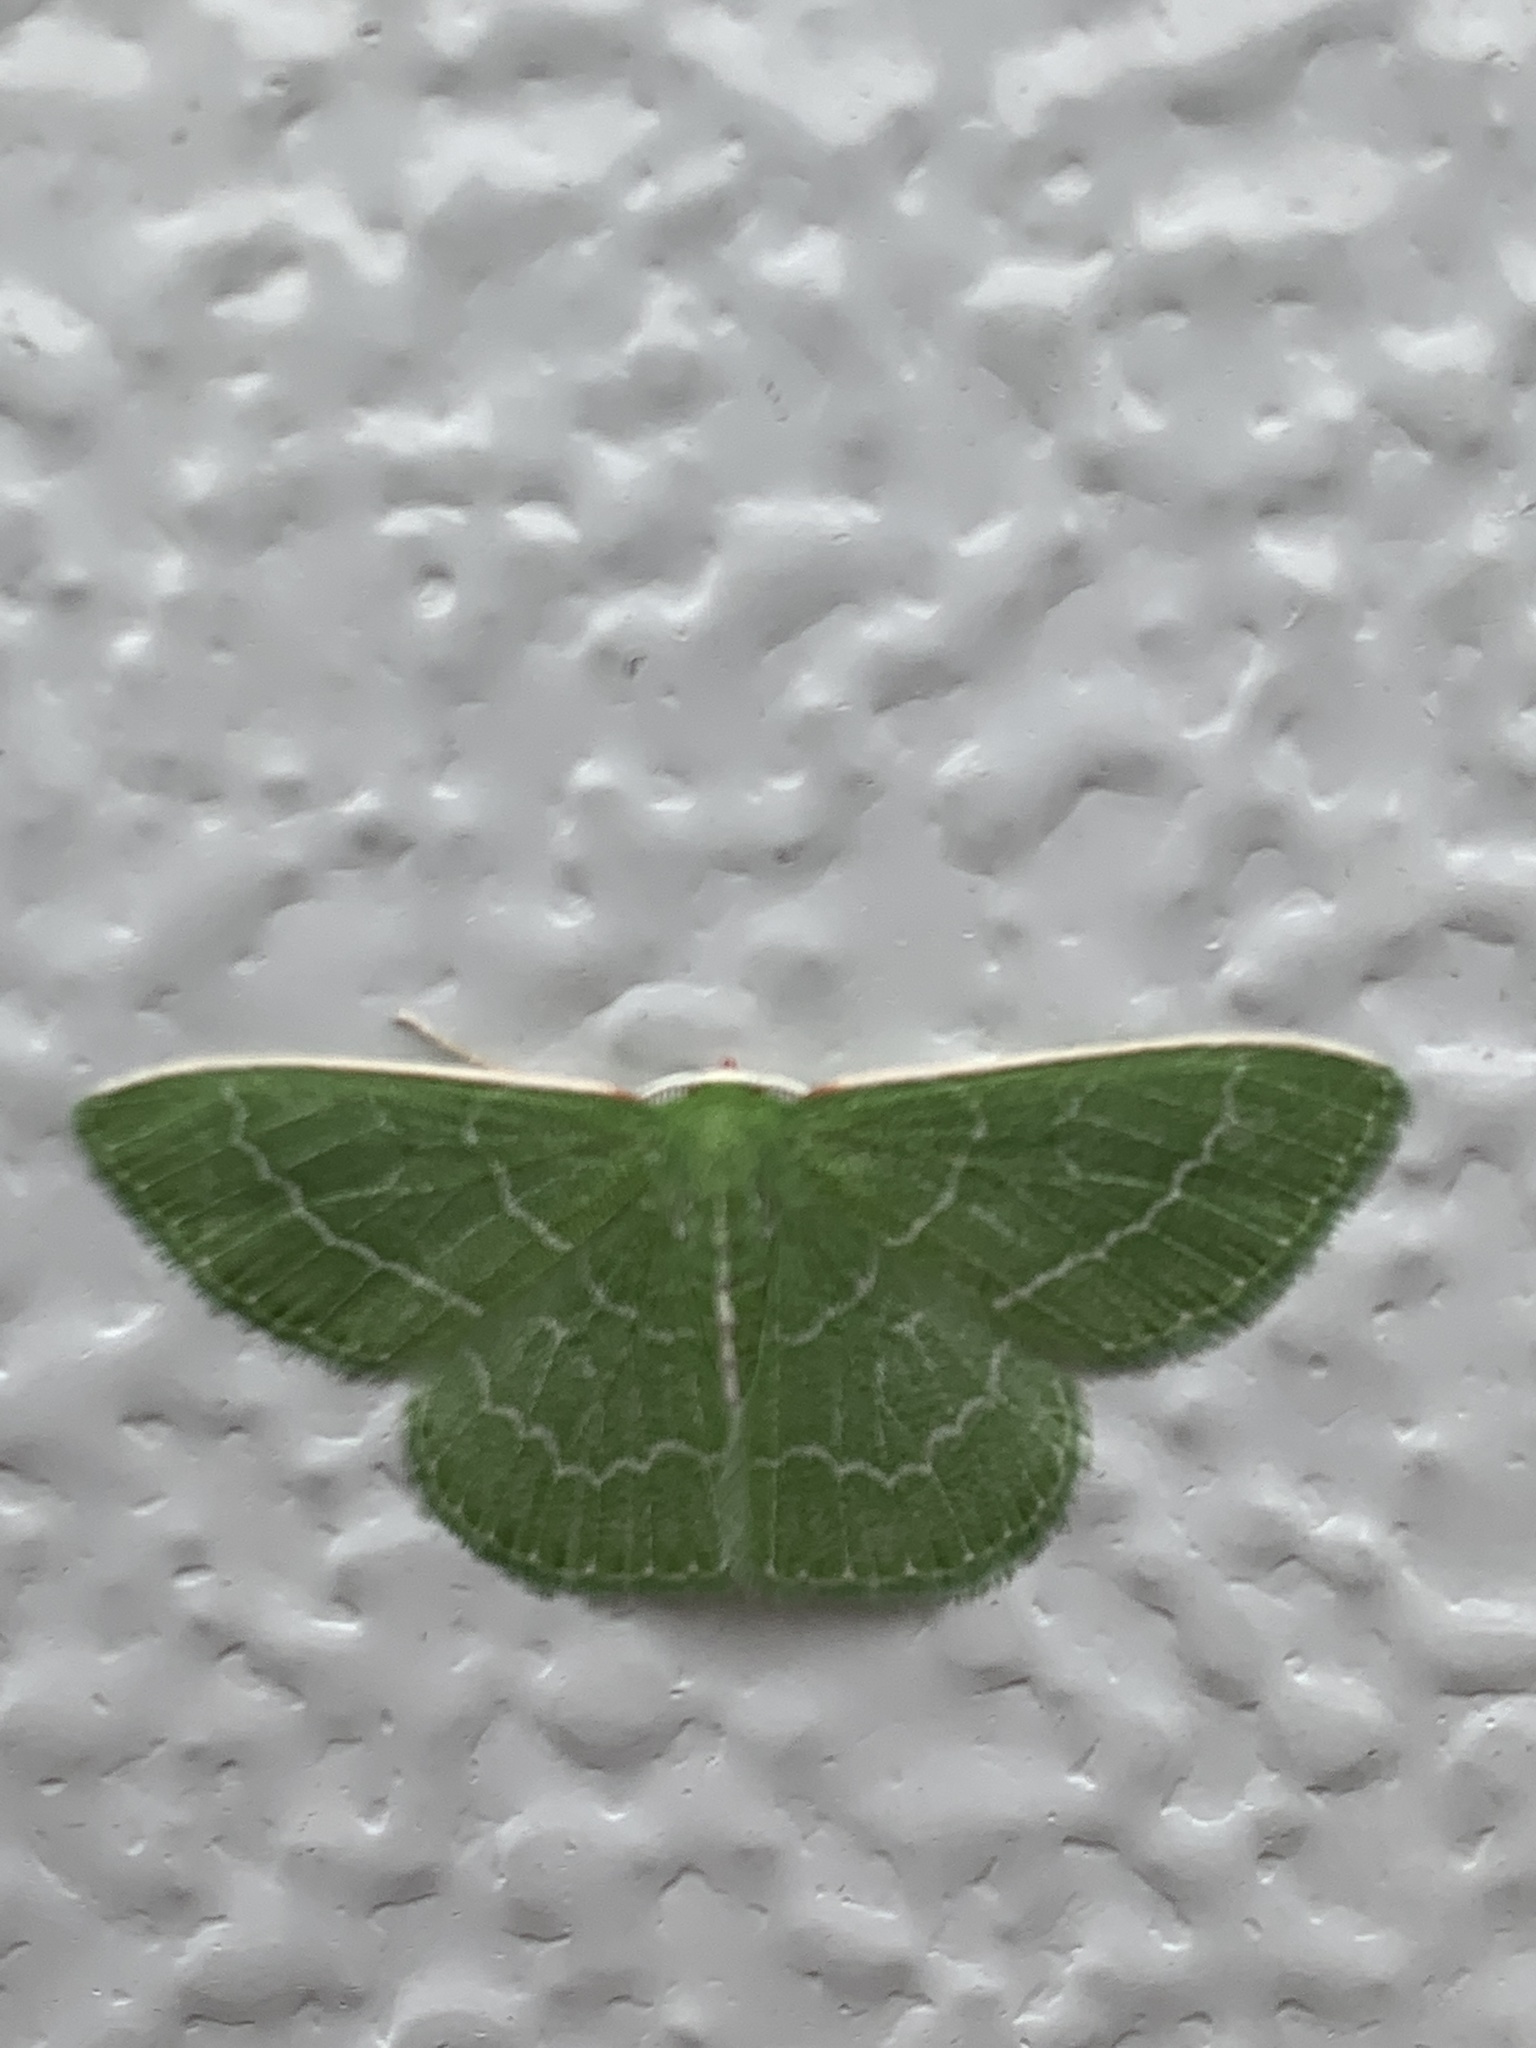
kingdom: Animalia
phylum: Arthropoda
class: Insecta
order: Lepidoptera
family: Geometridae
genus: Synchlora
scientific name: Synchlora aerata
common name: Wavy-lined emerald
